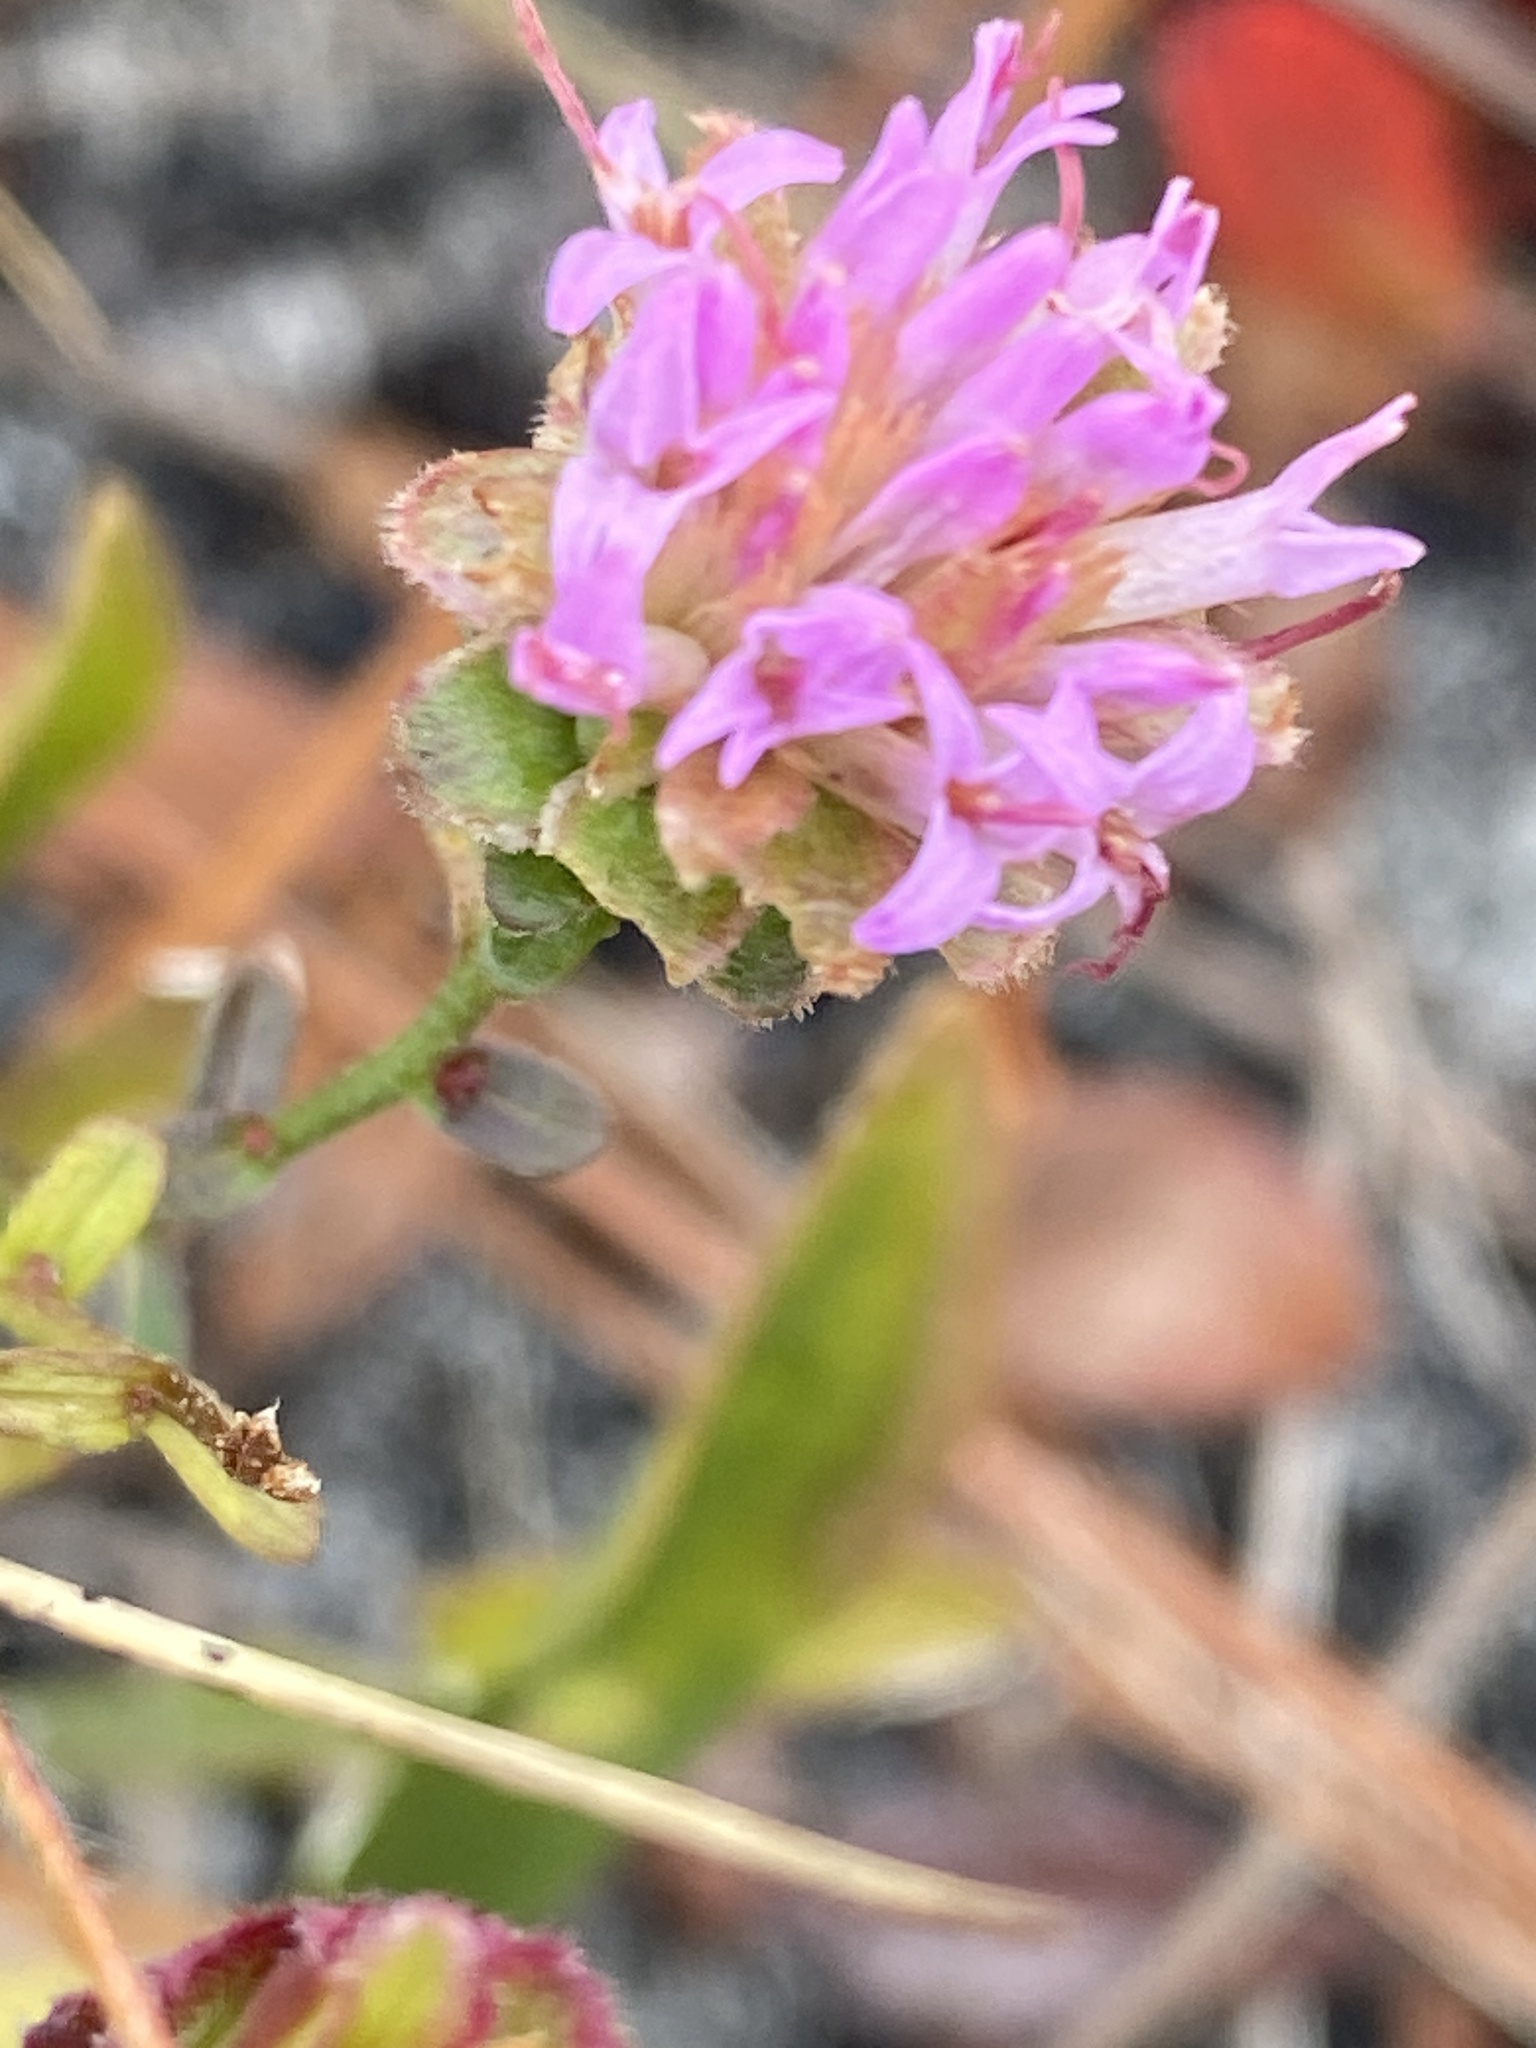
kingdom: Plantae
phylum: Tracheophyta
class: Magnoliopsida
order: Asterales
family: Asteraceae
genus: Carphephorus
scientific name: Carphephorus bellidifolius
